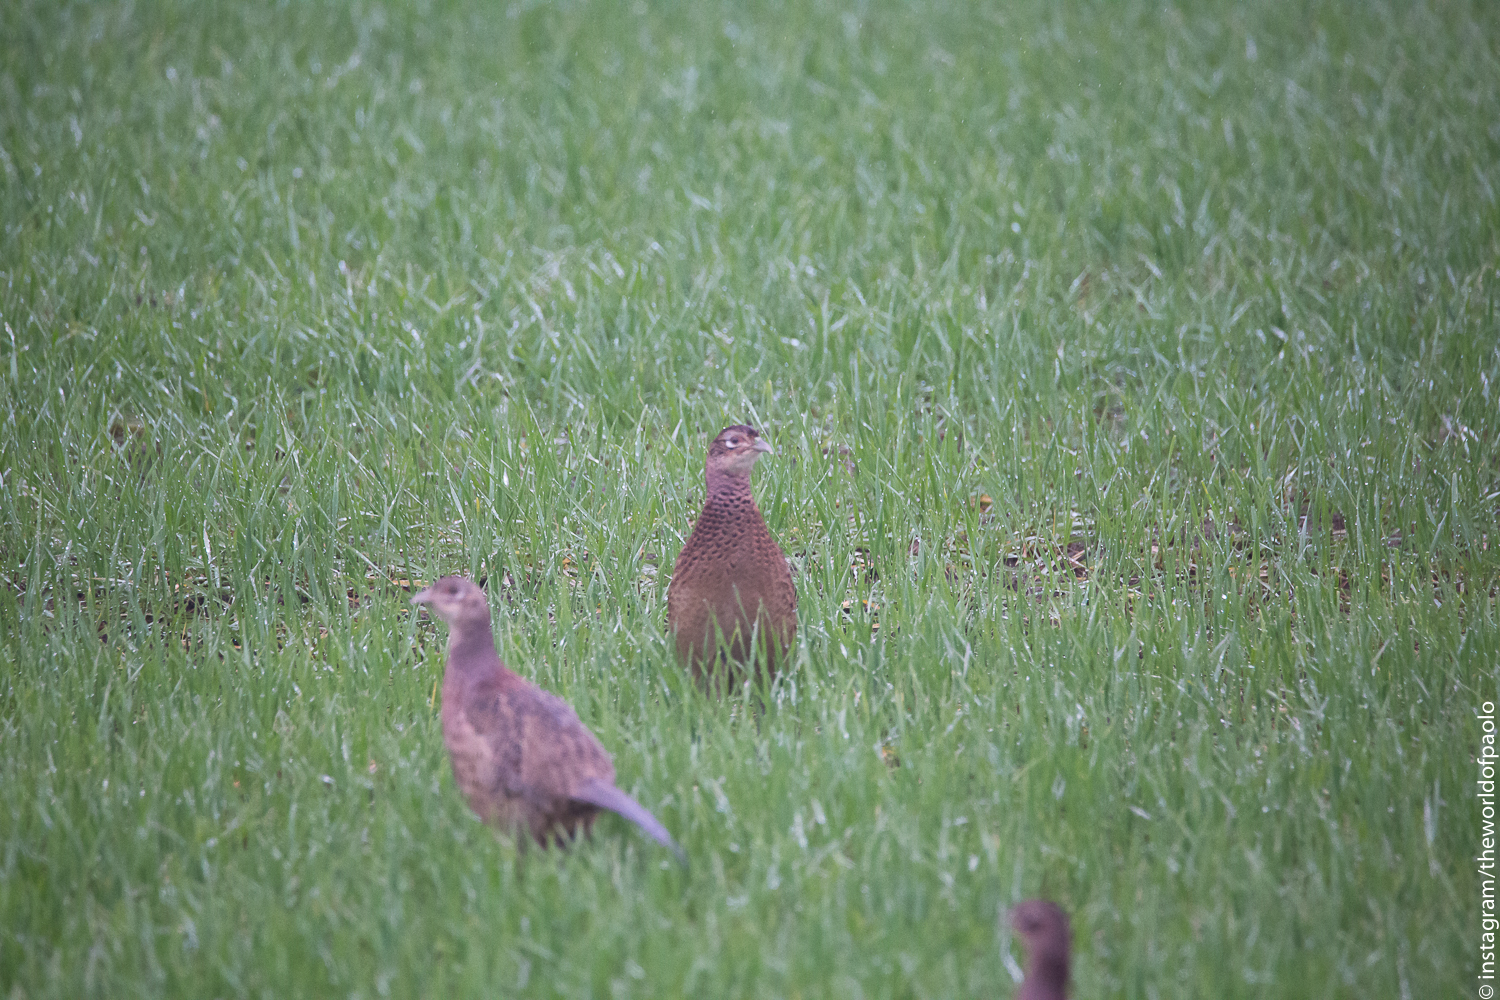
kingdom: Animalia
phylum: Chordata
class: Aves
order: Galliformes
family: Phasianidae
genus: Phasianus
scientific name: Phasianus colchicus
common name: Common pheasant
